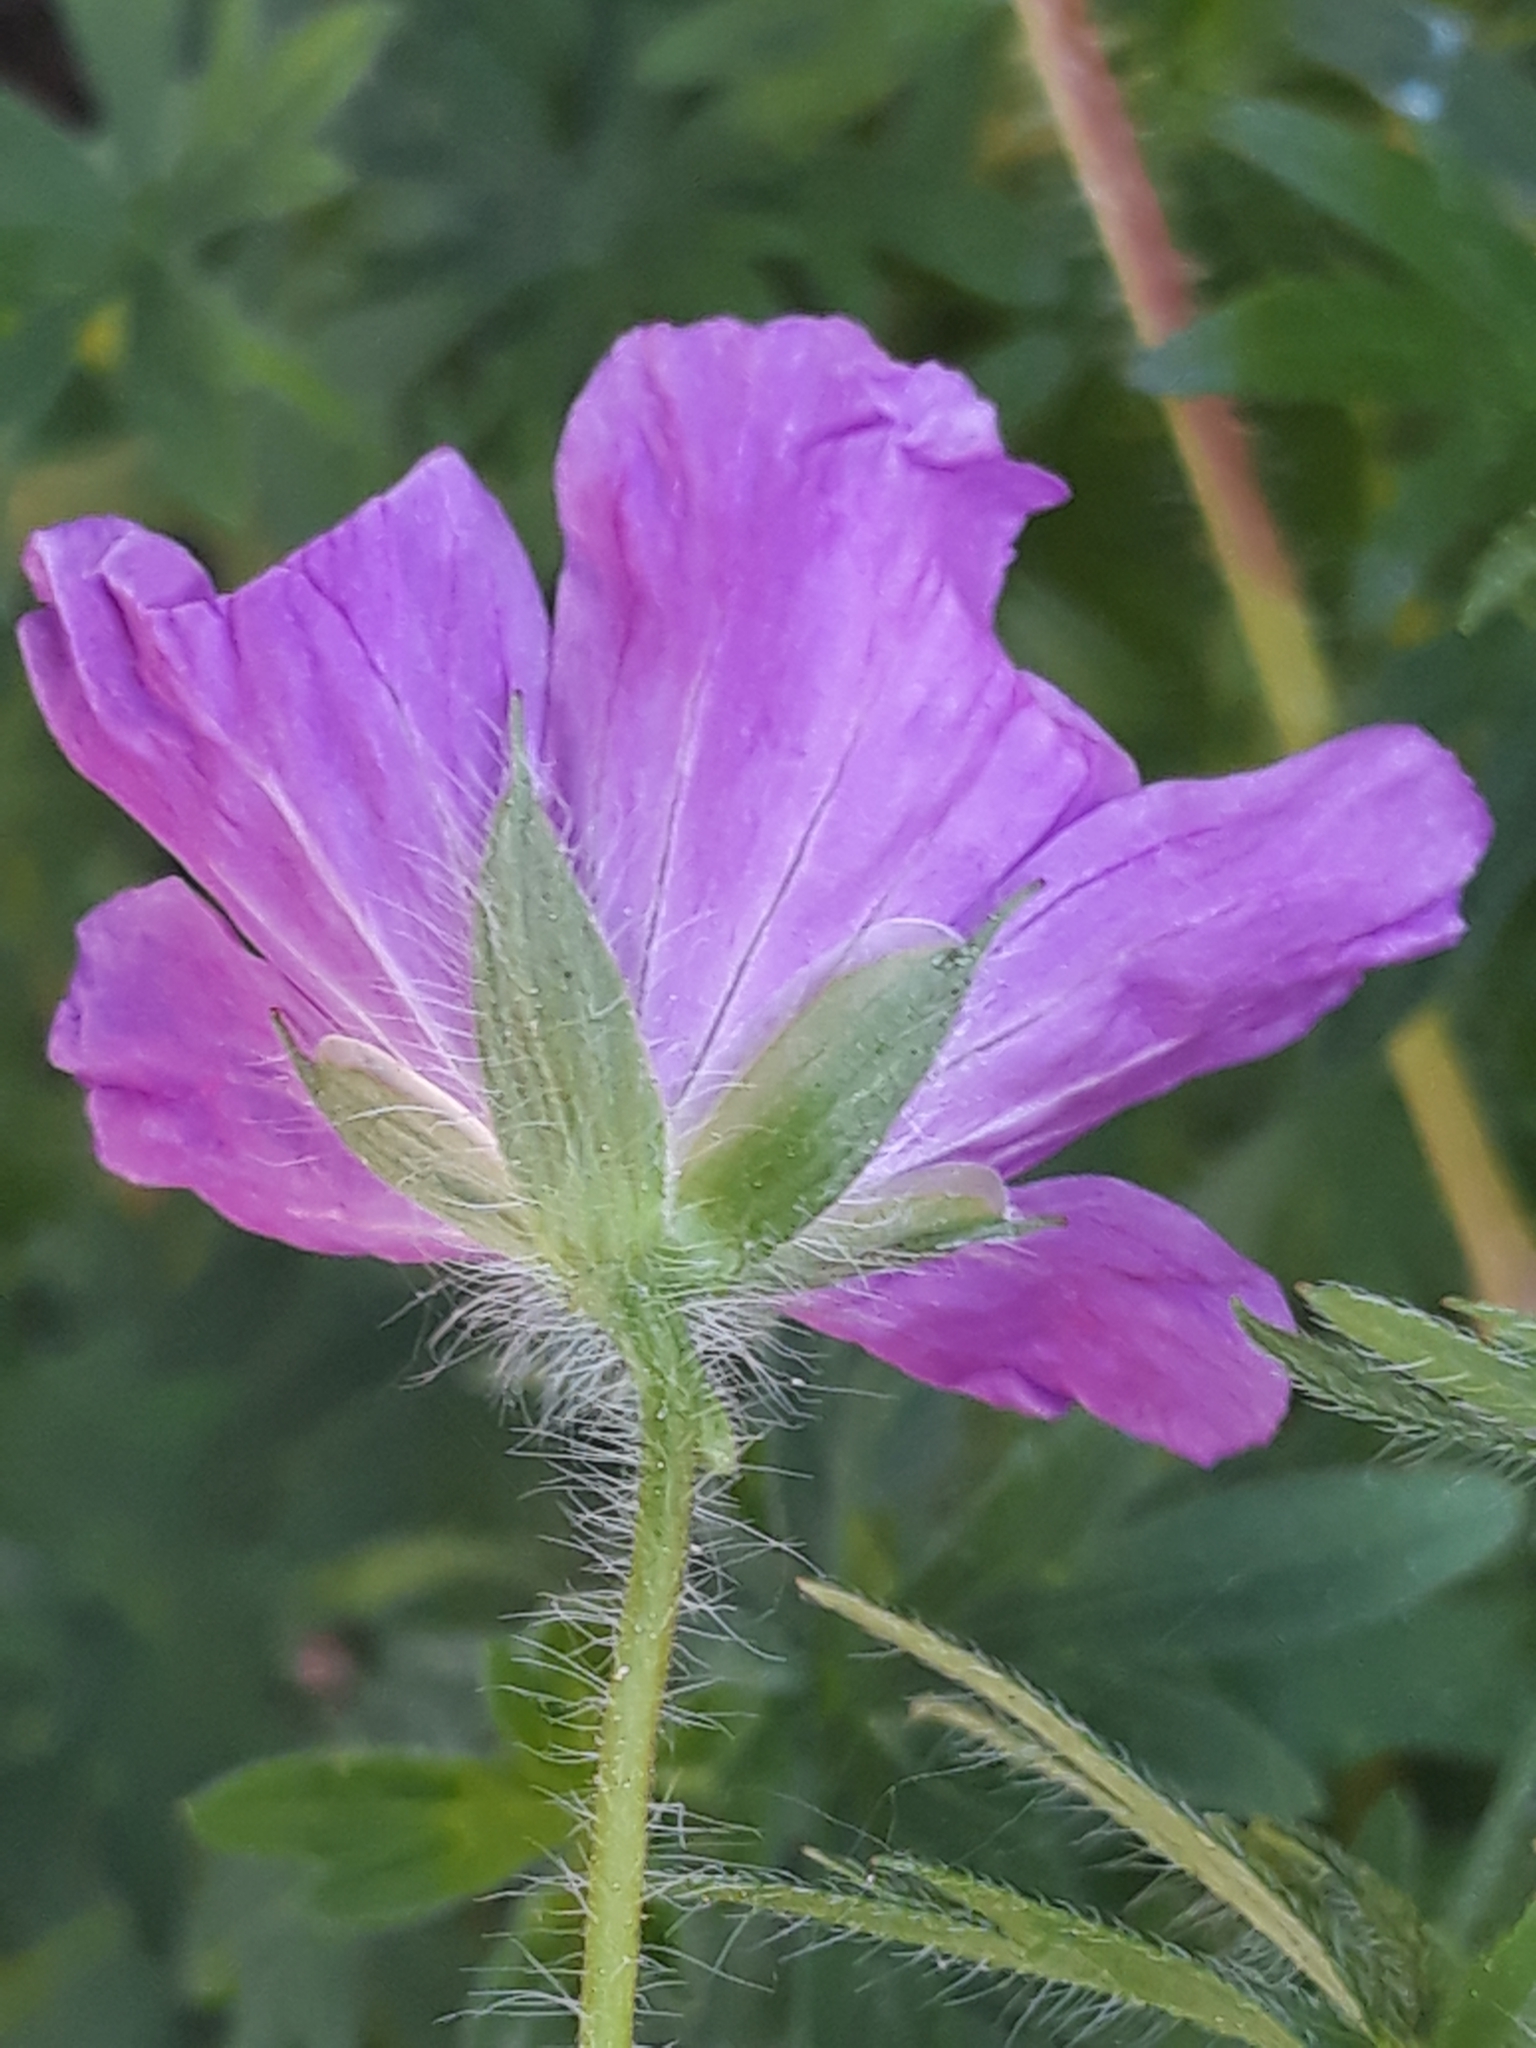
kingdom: Plantae
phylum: Tracheophyta
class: Magnoliopsida
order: Geraniales
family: Geraniaceae
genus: Geranium
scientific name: Geranium sanguineum
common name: Bloody crane's-bill
